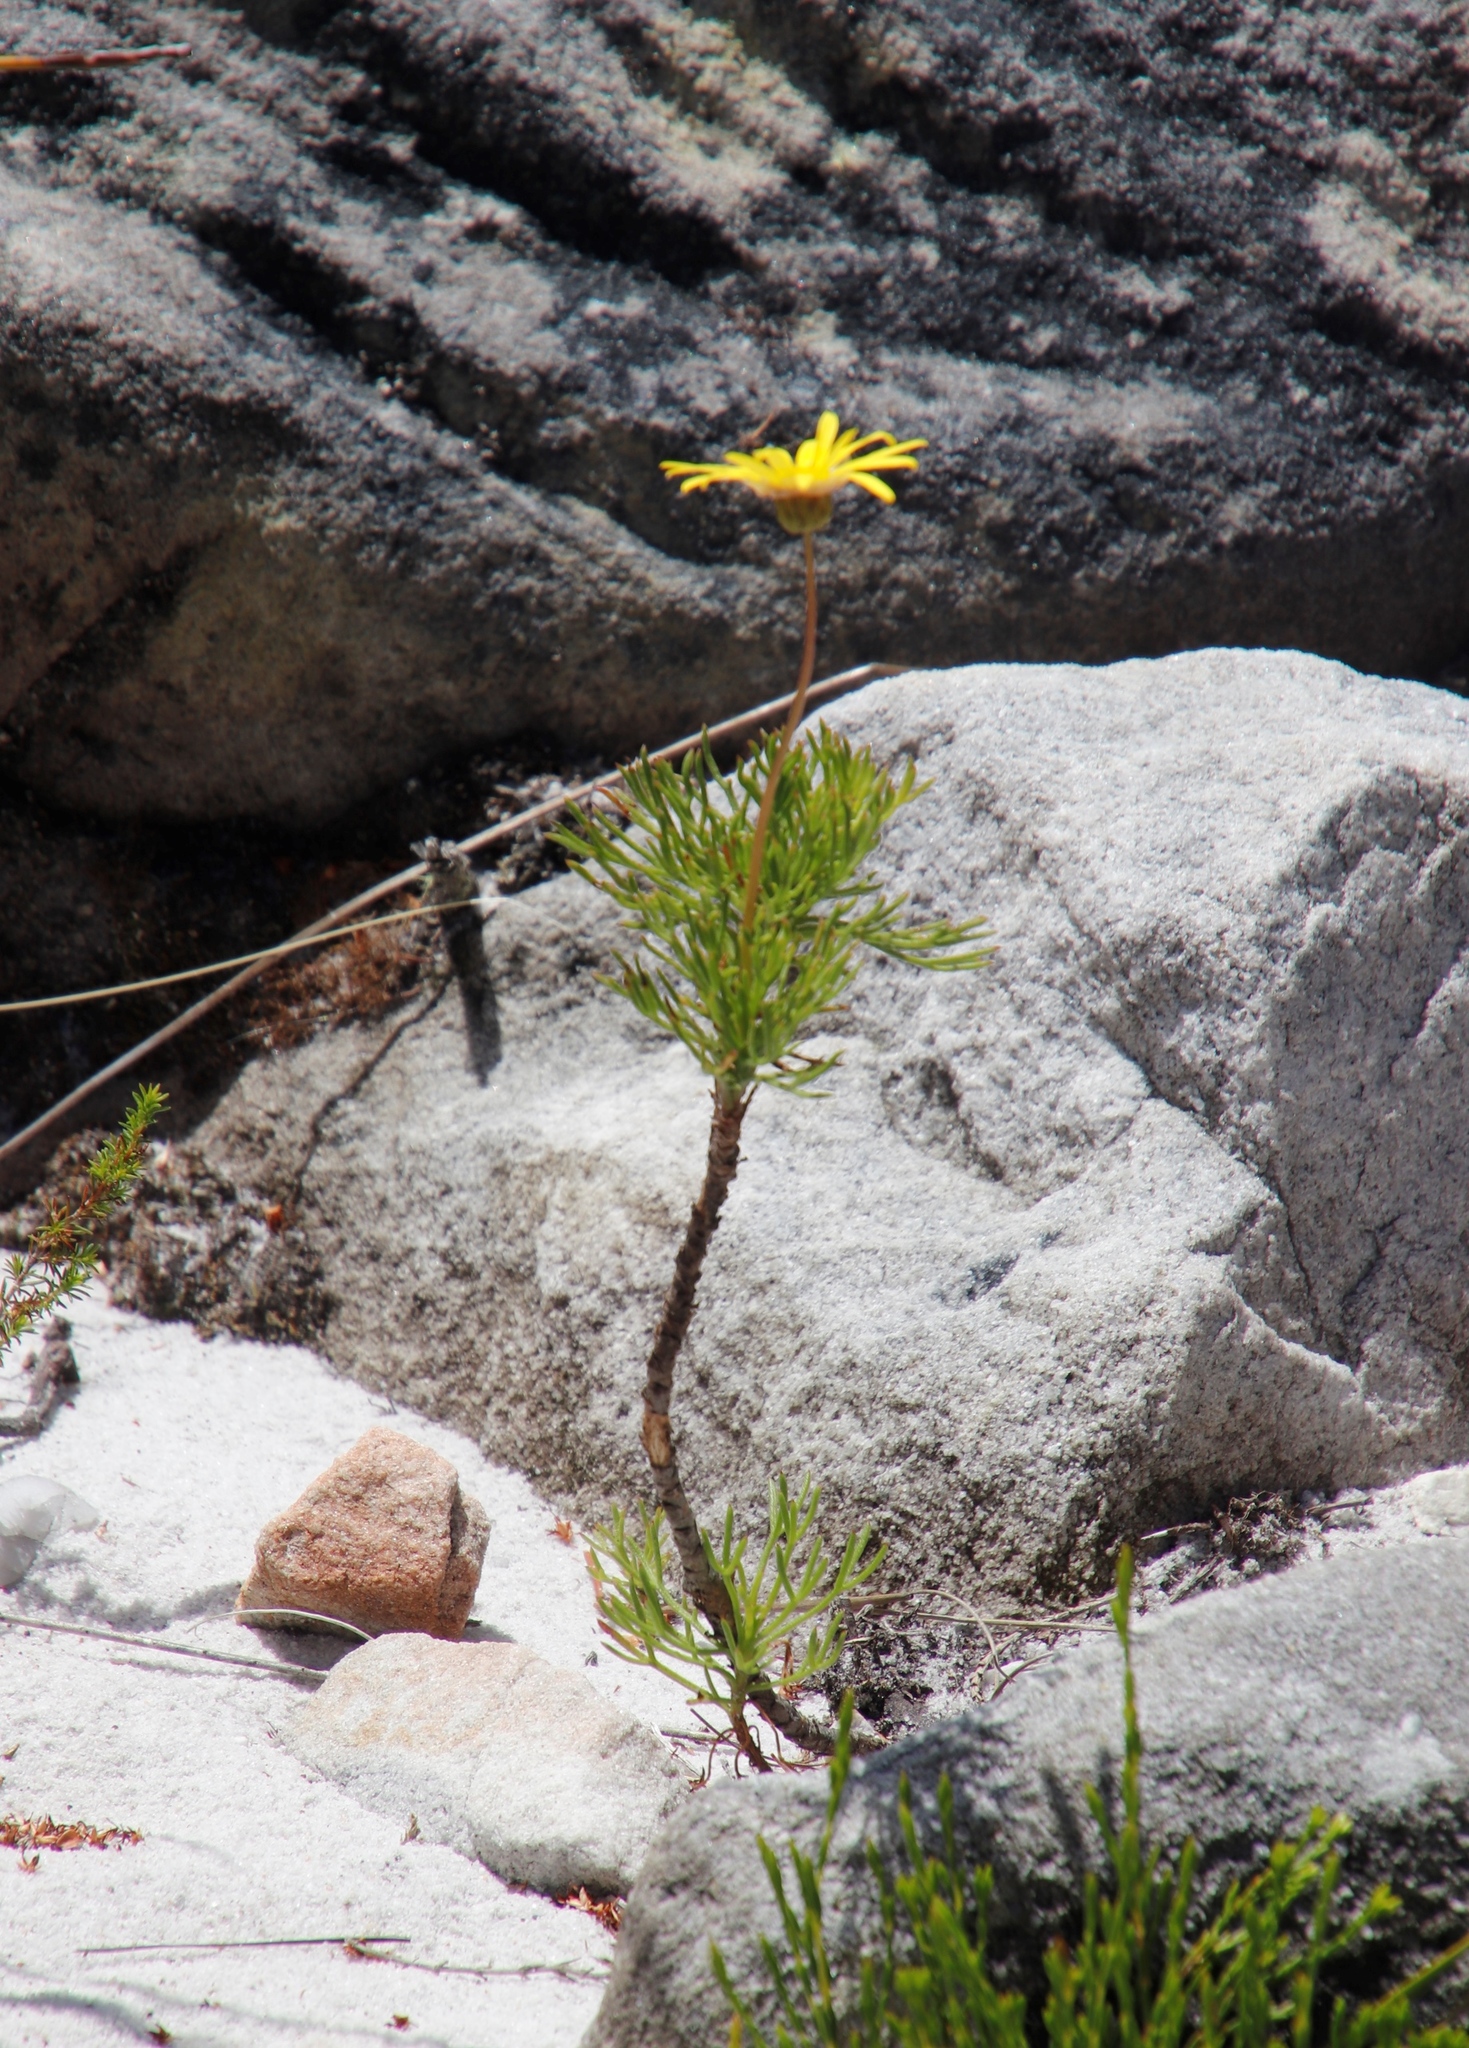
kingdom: Plantae
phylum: Tracheophyta
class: Magnoliopsida
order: Asterales
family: Asteraceae
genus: Euryops
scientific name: Euryops abrotanifolius
